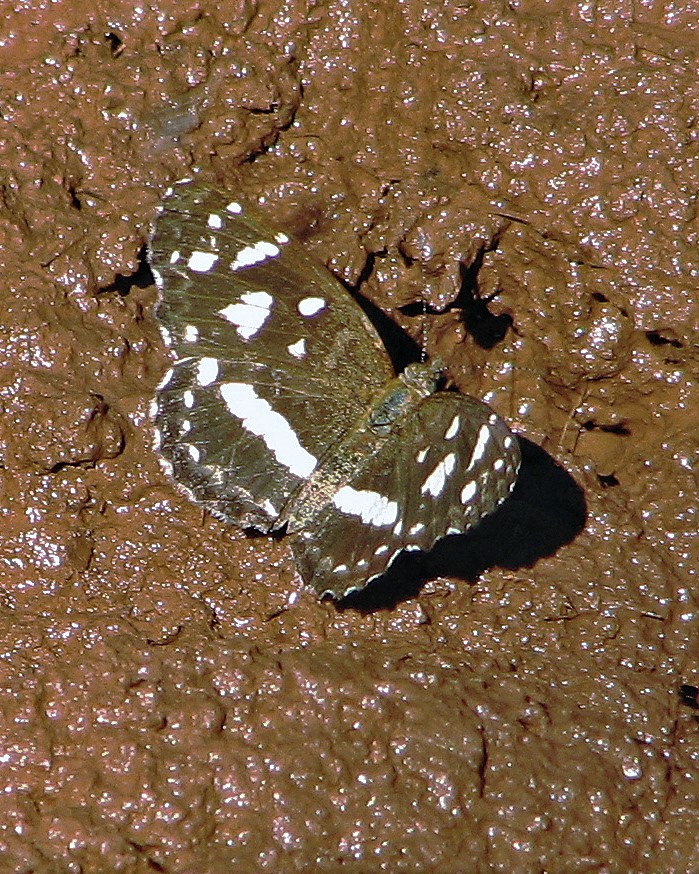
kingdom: Animalia
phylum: Arthropoda
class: Insecta
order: Lepidoptera
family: Nymphalidae
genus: Ortilia
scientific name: Ortilia ithra
